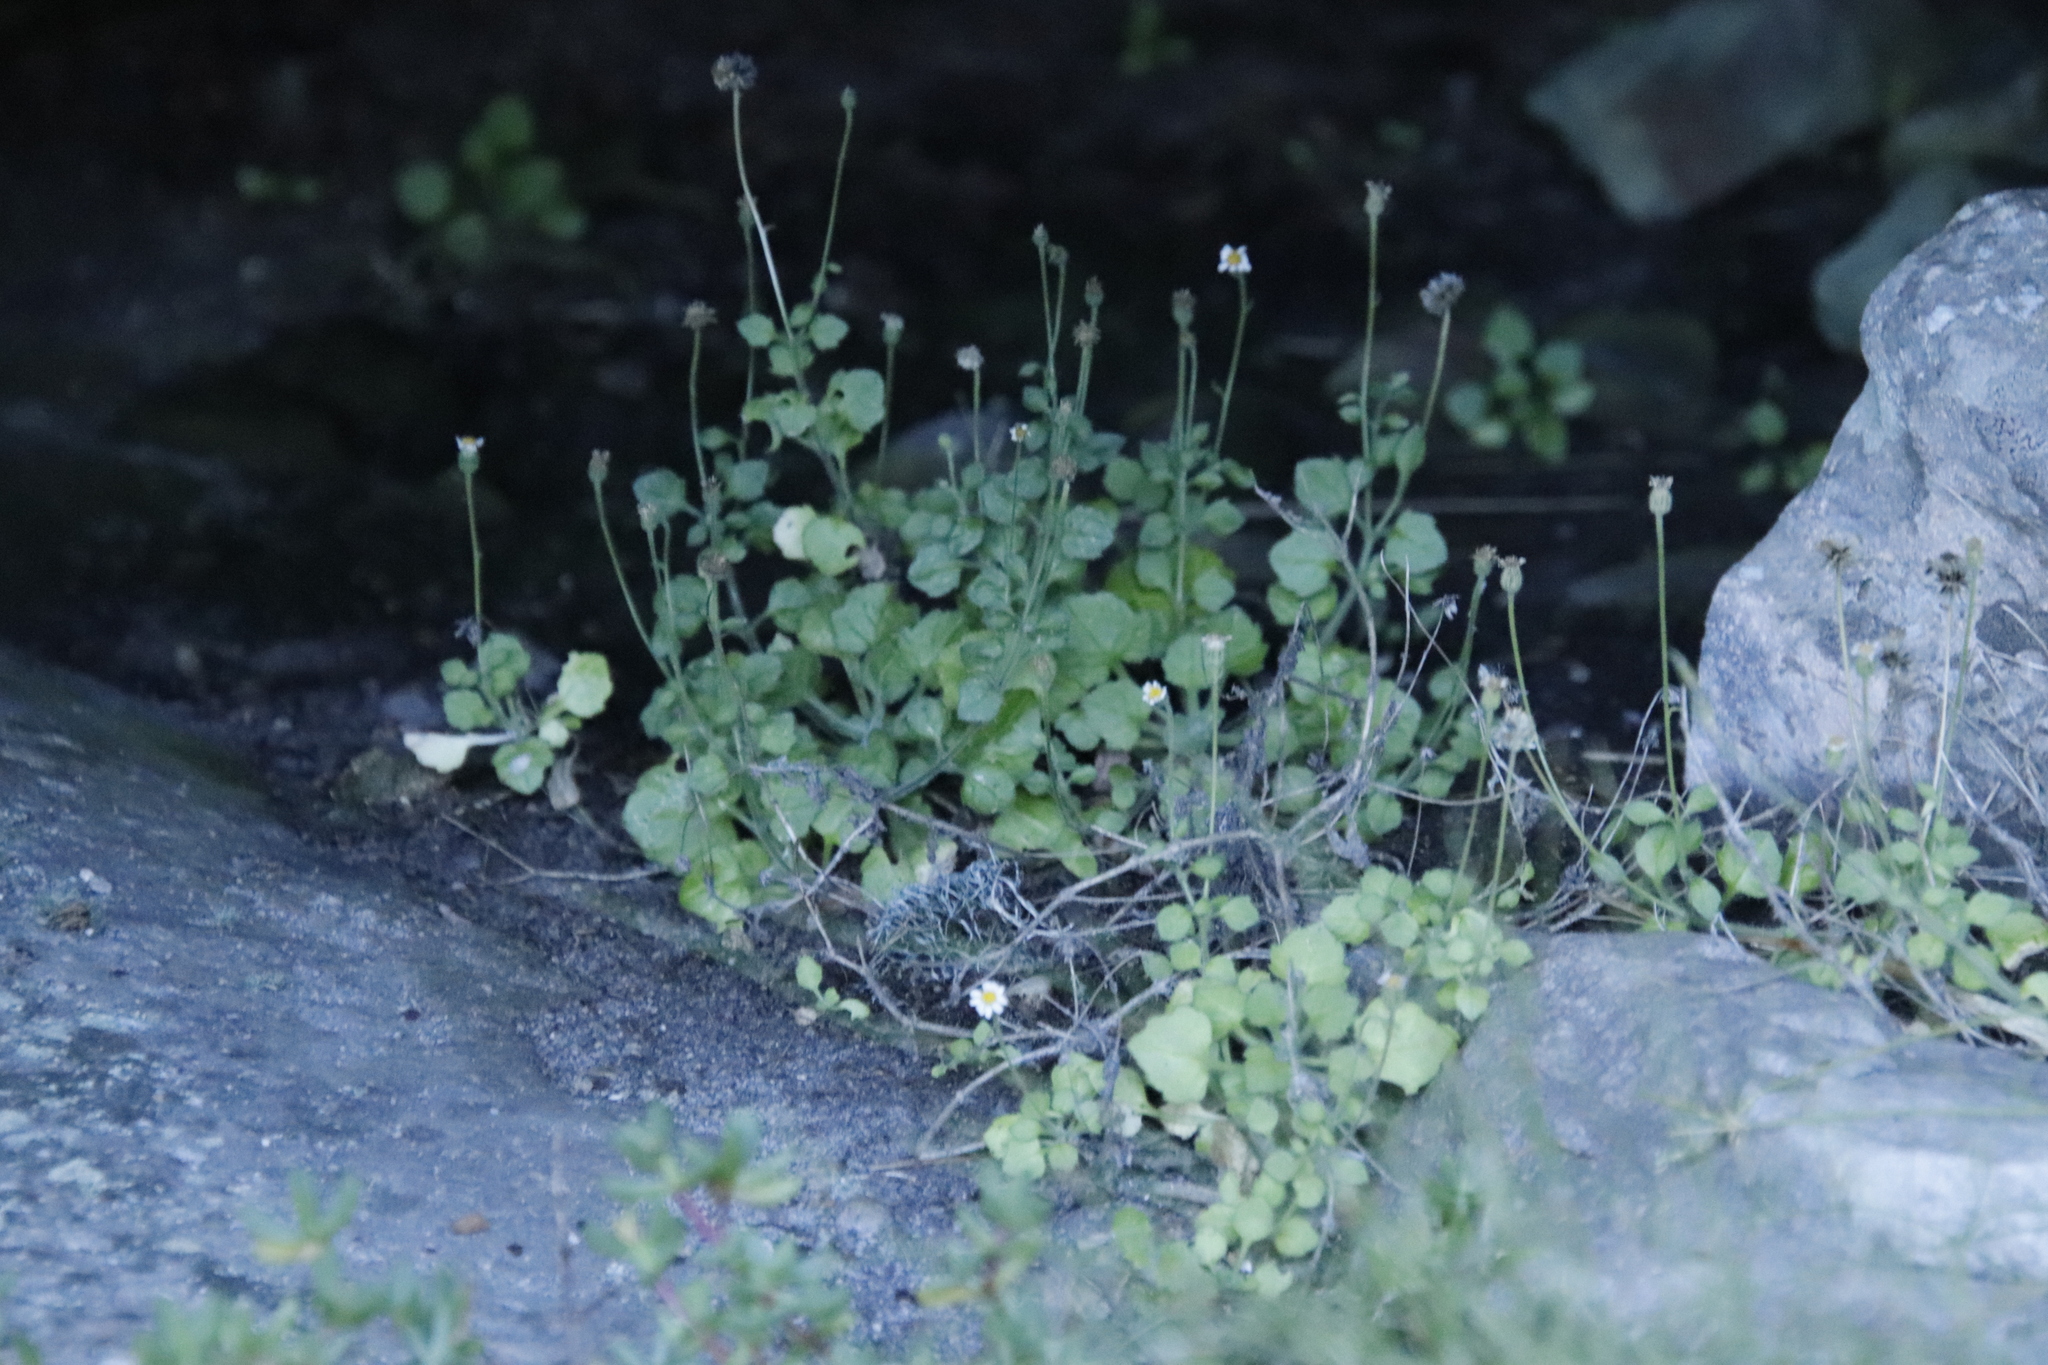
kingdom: Plantae
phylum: Tracheophyta
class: Magnoliopsida
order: Asterales
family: Asteraceae
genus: Felicia
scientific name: Felicia cymbalariae
